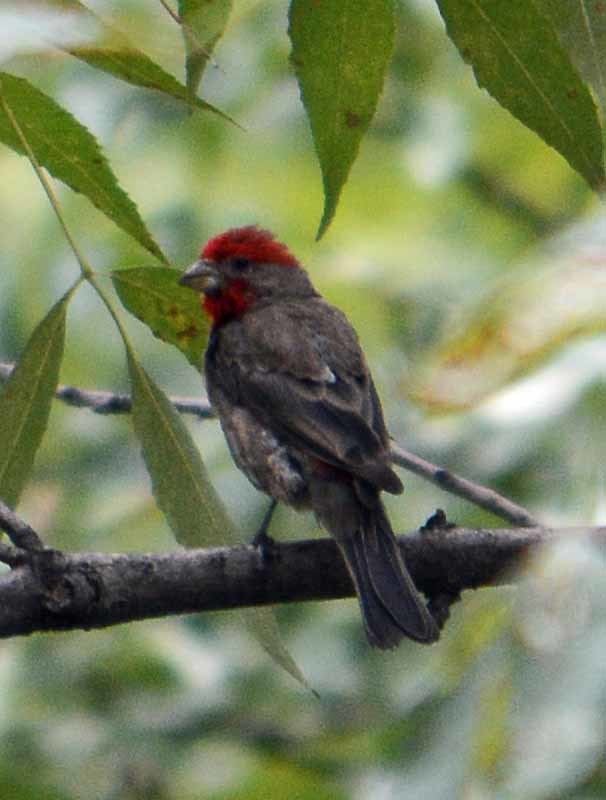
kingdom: Animalia
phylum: Chordata
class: Aves
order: Passeriformes
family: Fringillidae
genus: Haemorhous
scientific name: Haemorhous mexicanus
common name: House finch
